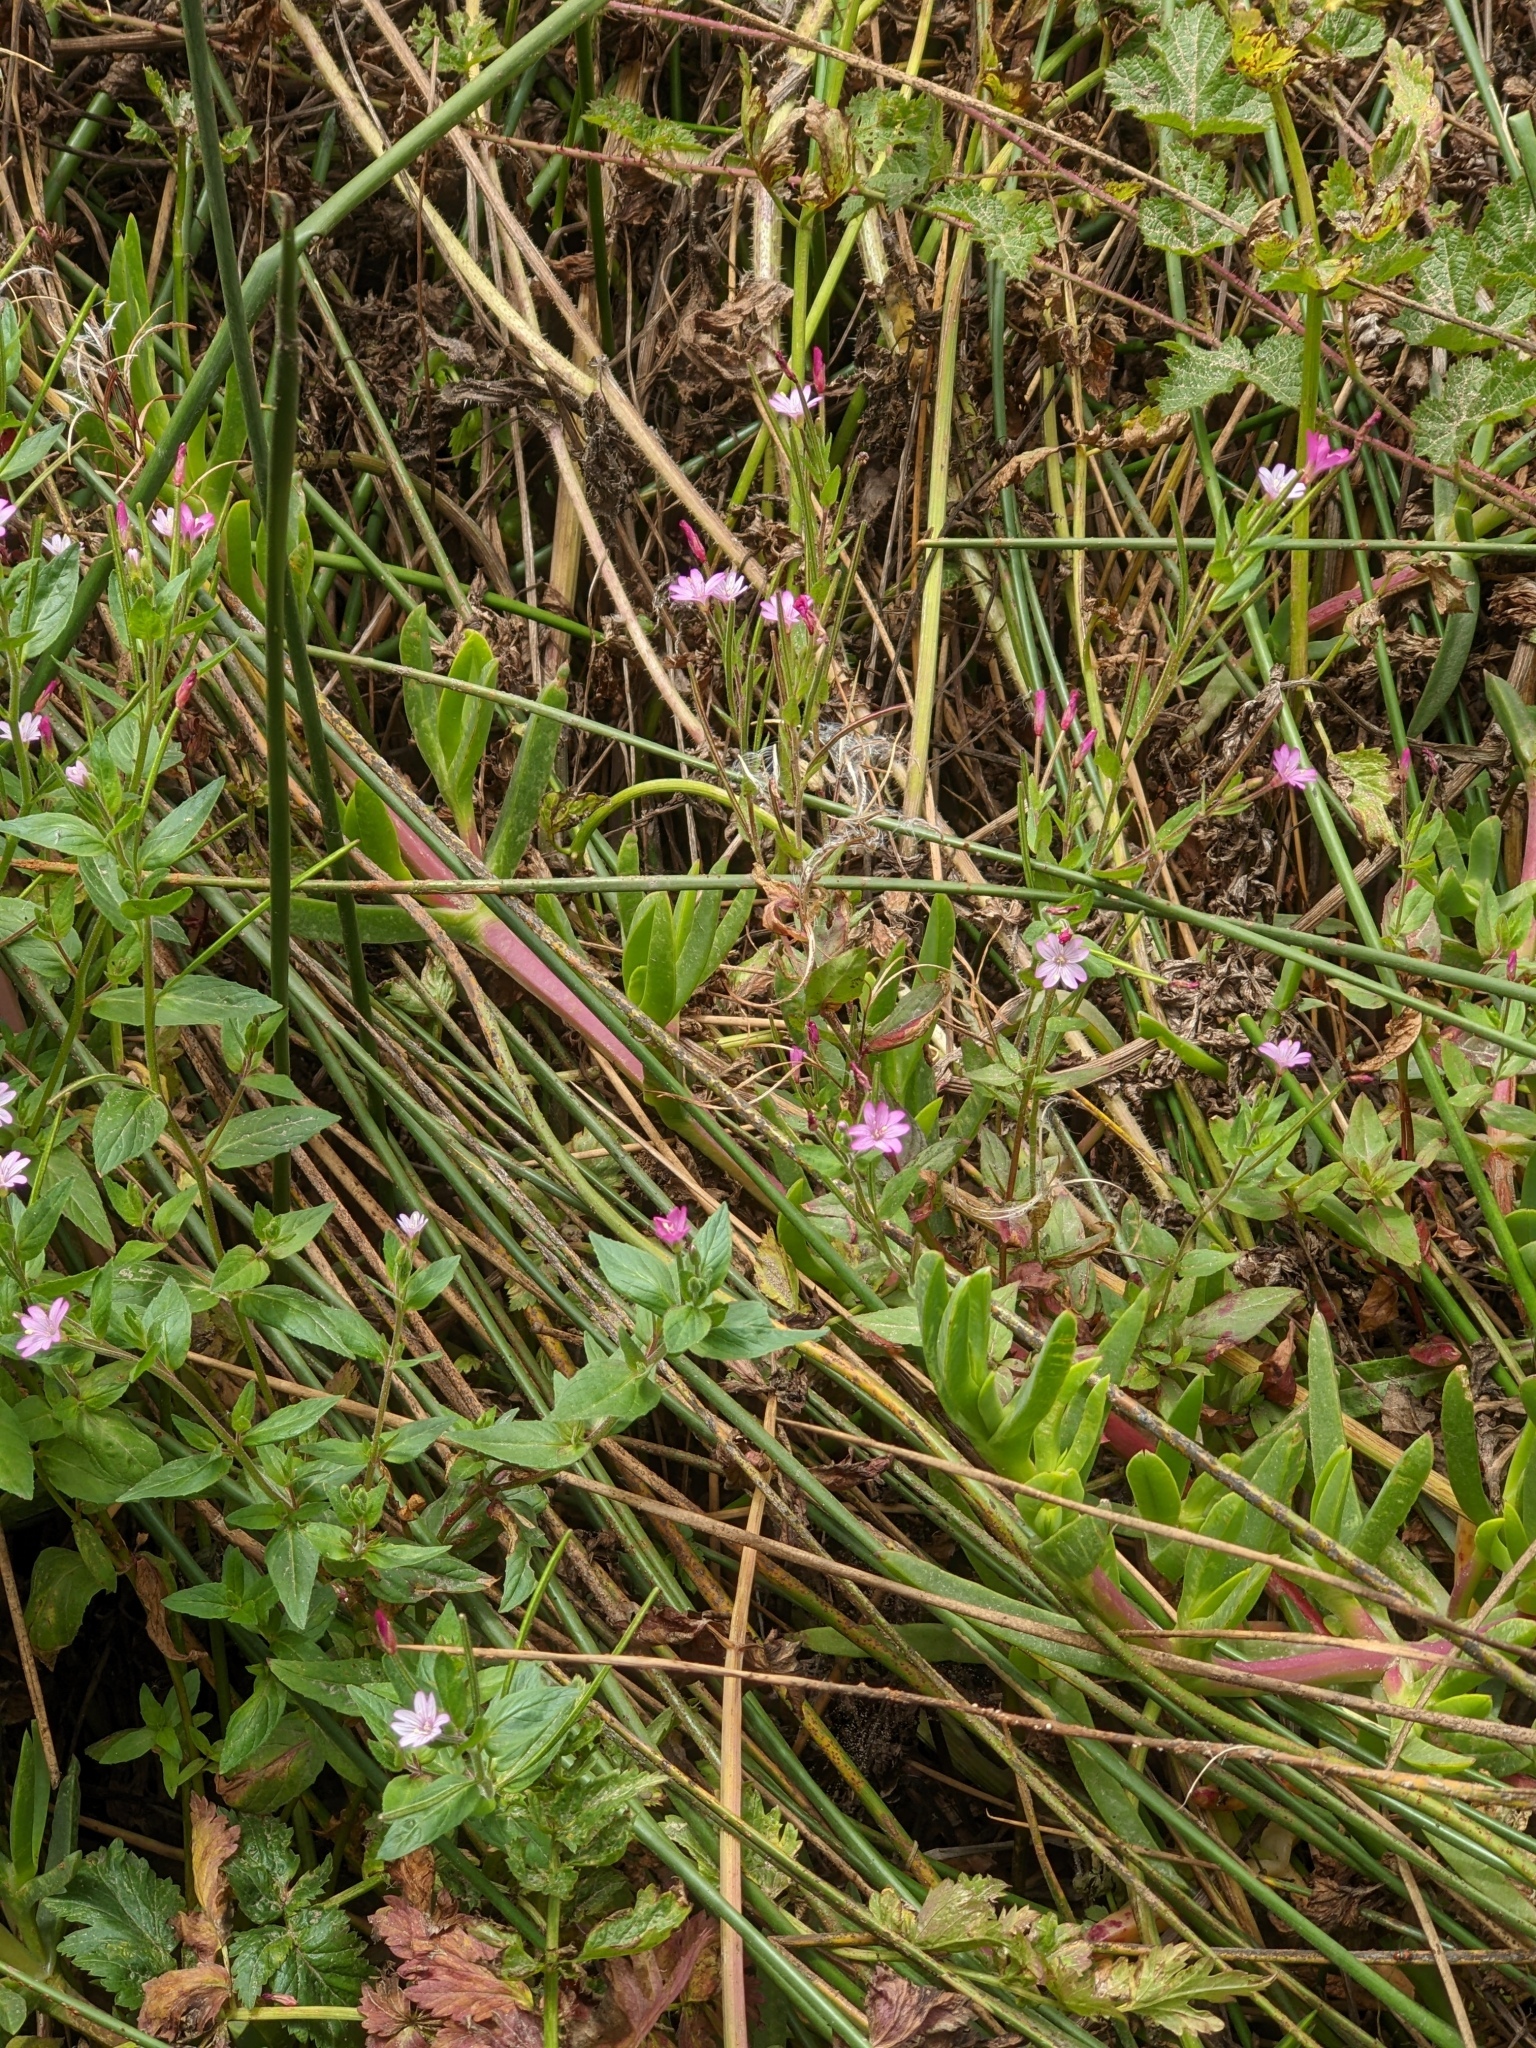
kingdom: Plantae
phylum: Tracheophyta
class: Magnoliopsida
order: Myrtales
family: Onagraceae
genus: Epilobium
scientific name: Epilobium ciliatum
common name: American willowherb
